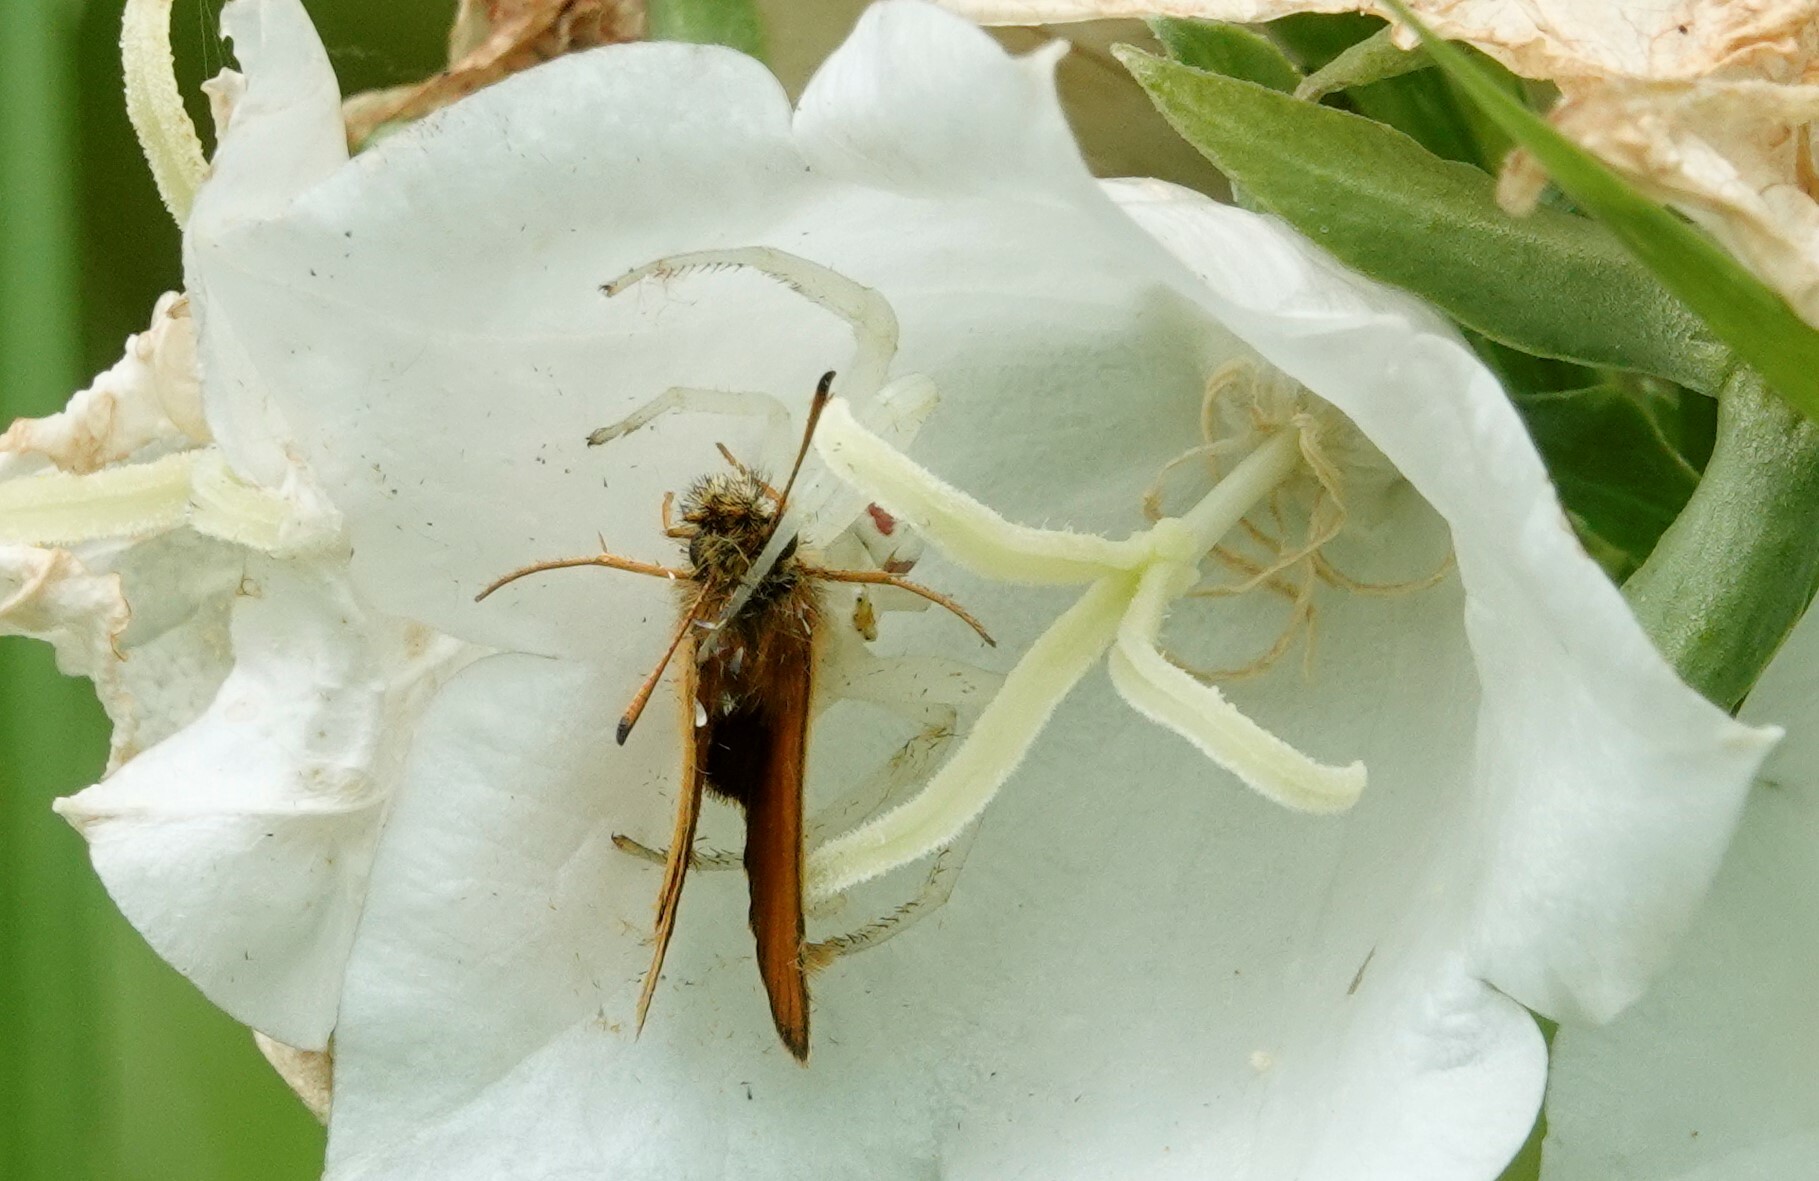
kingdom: Animalia
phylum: Arthropoda
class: Insecta
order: Lepidoptera
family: Hesperiidae
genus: Thymelicus
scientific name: Thymelicus lineola
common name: Essex skipper
